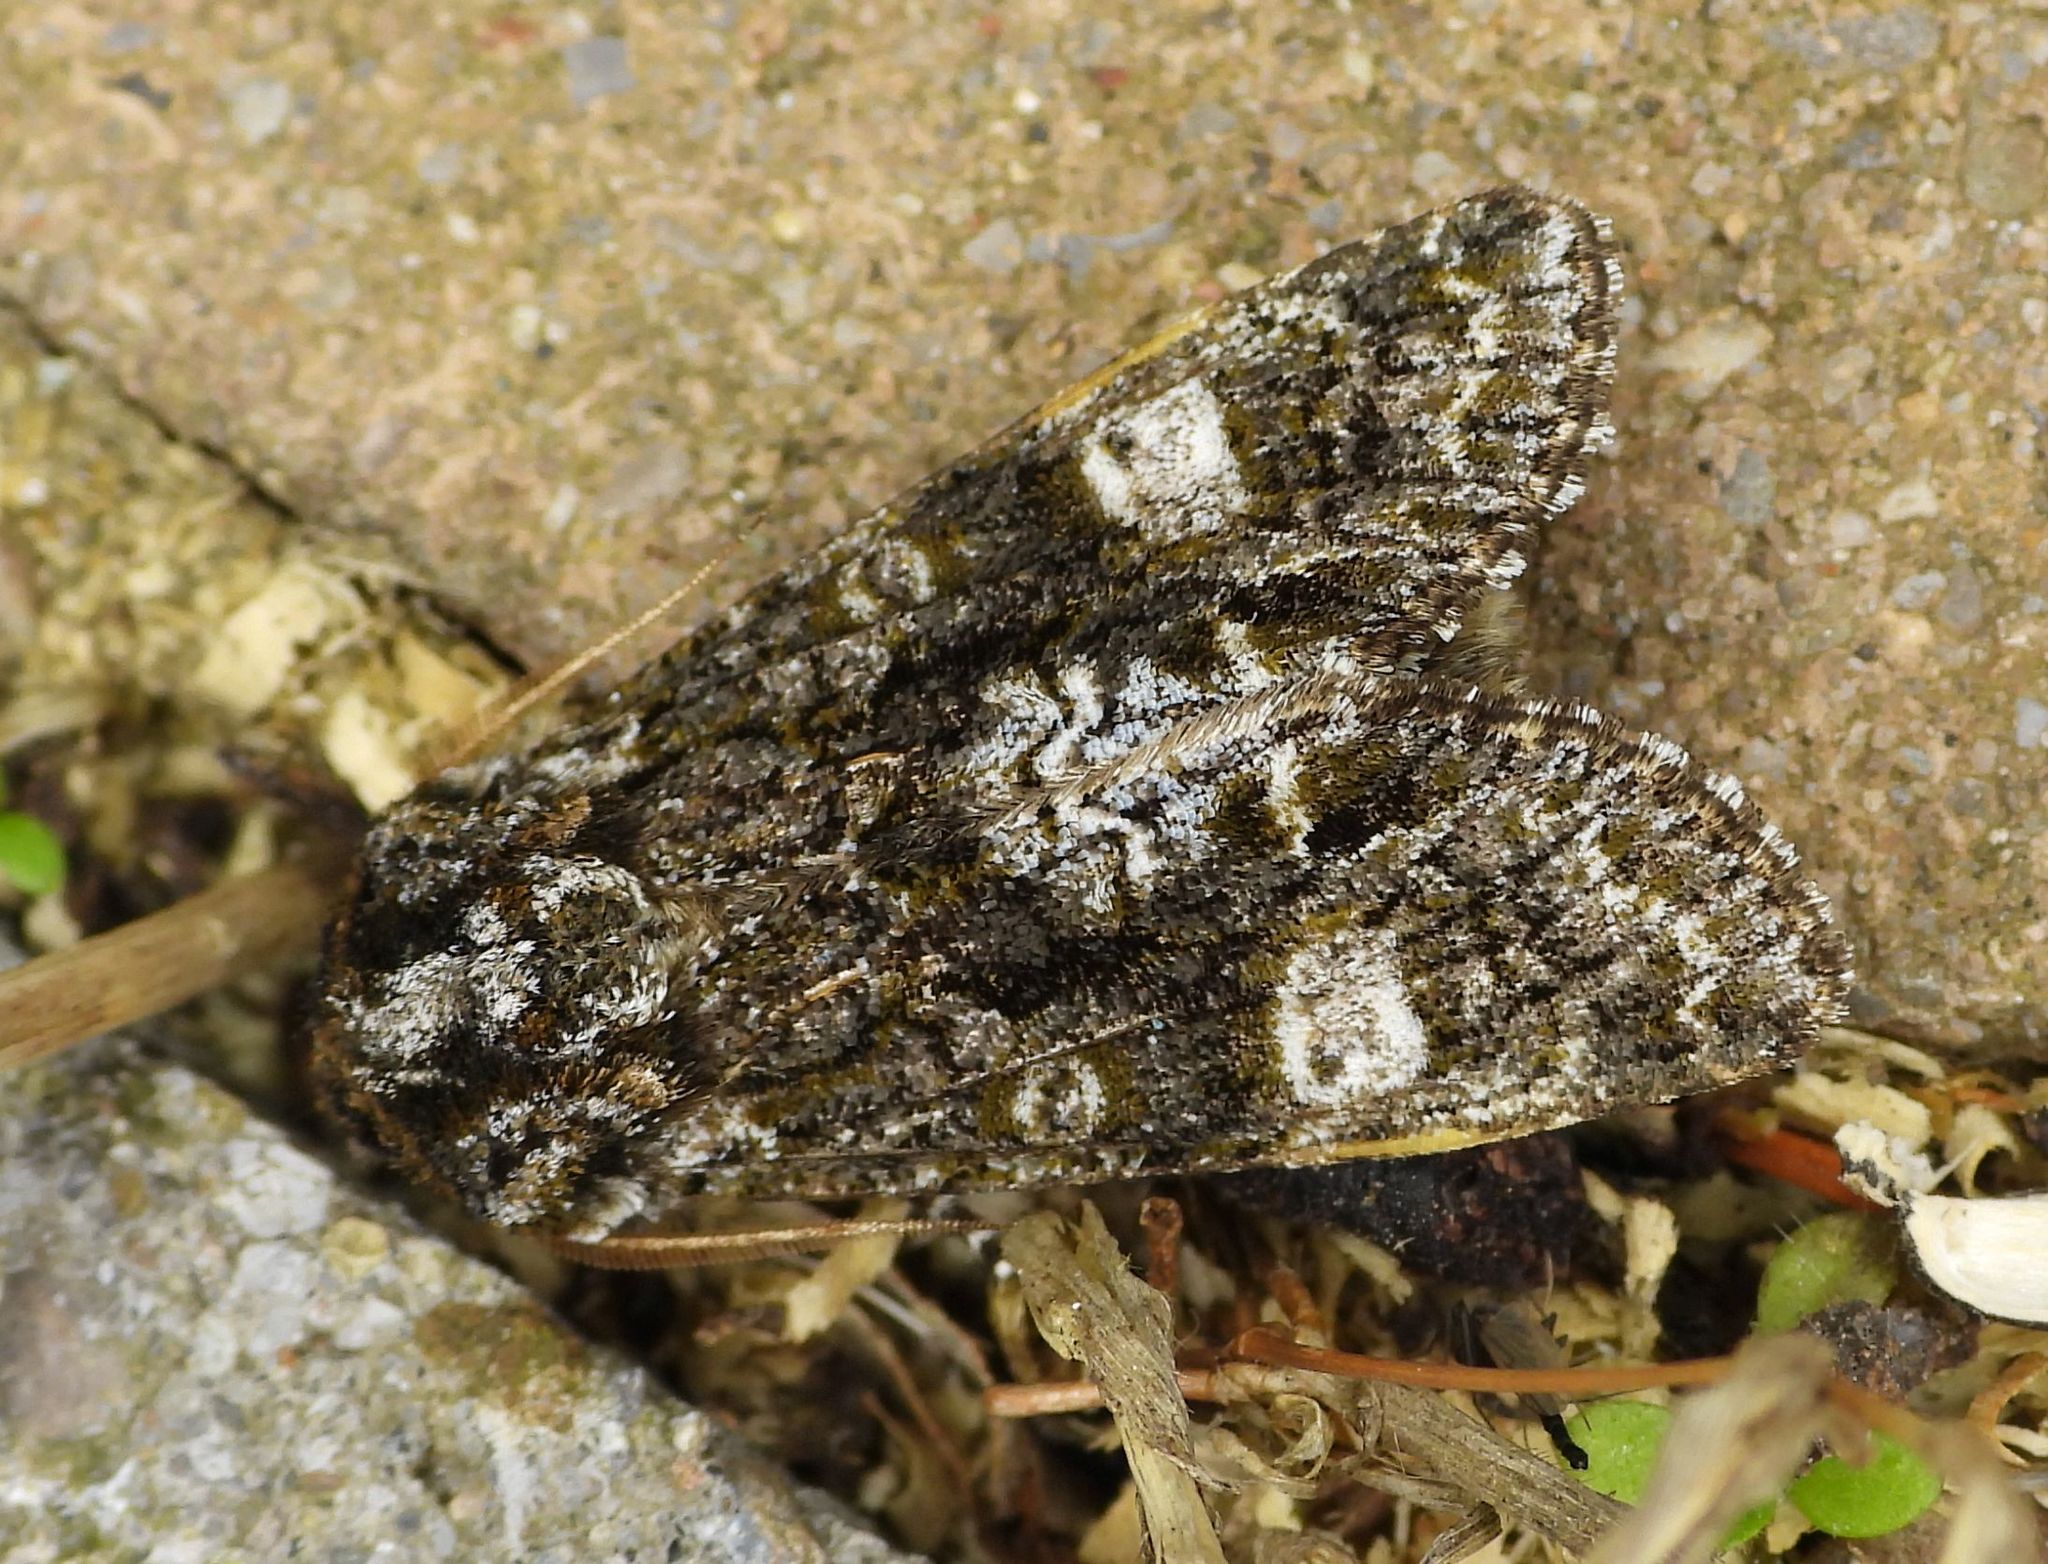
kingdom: Animalia
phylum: Arthropoda
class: Insecta
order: Lepidoptera
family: Noctuidae
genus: Psaphida
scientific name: Psaphida grotei
